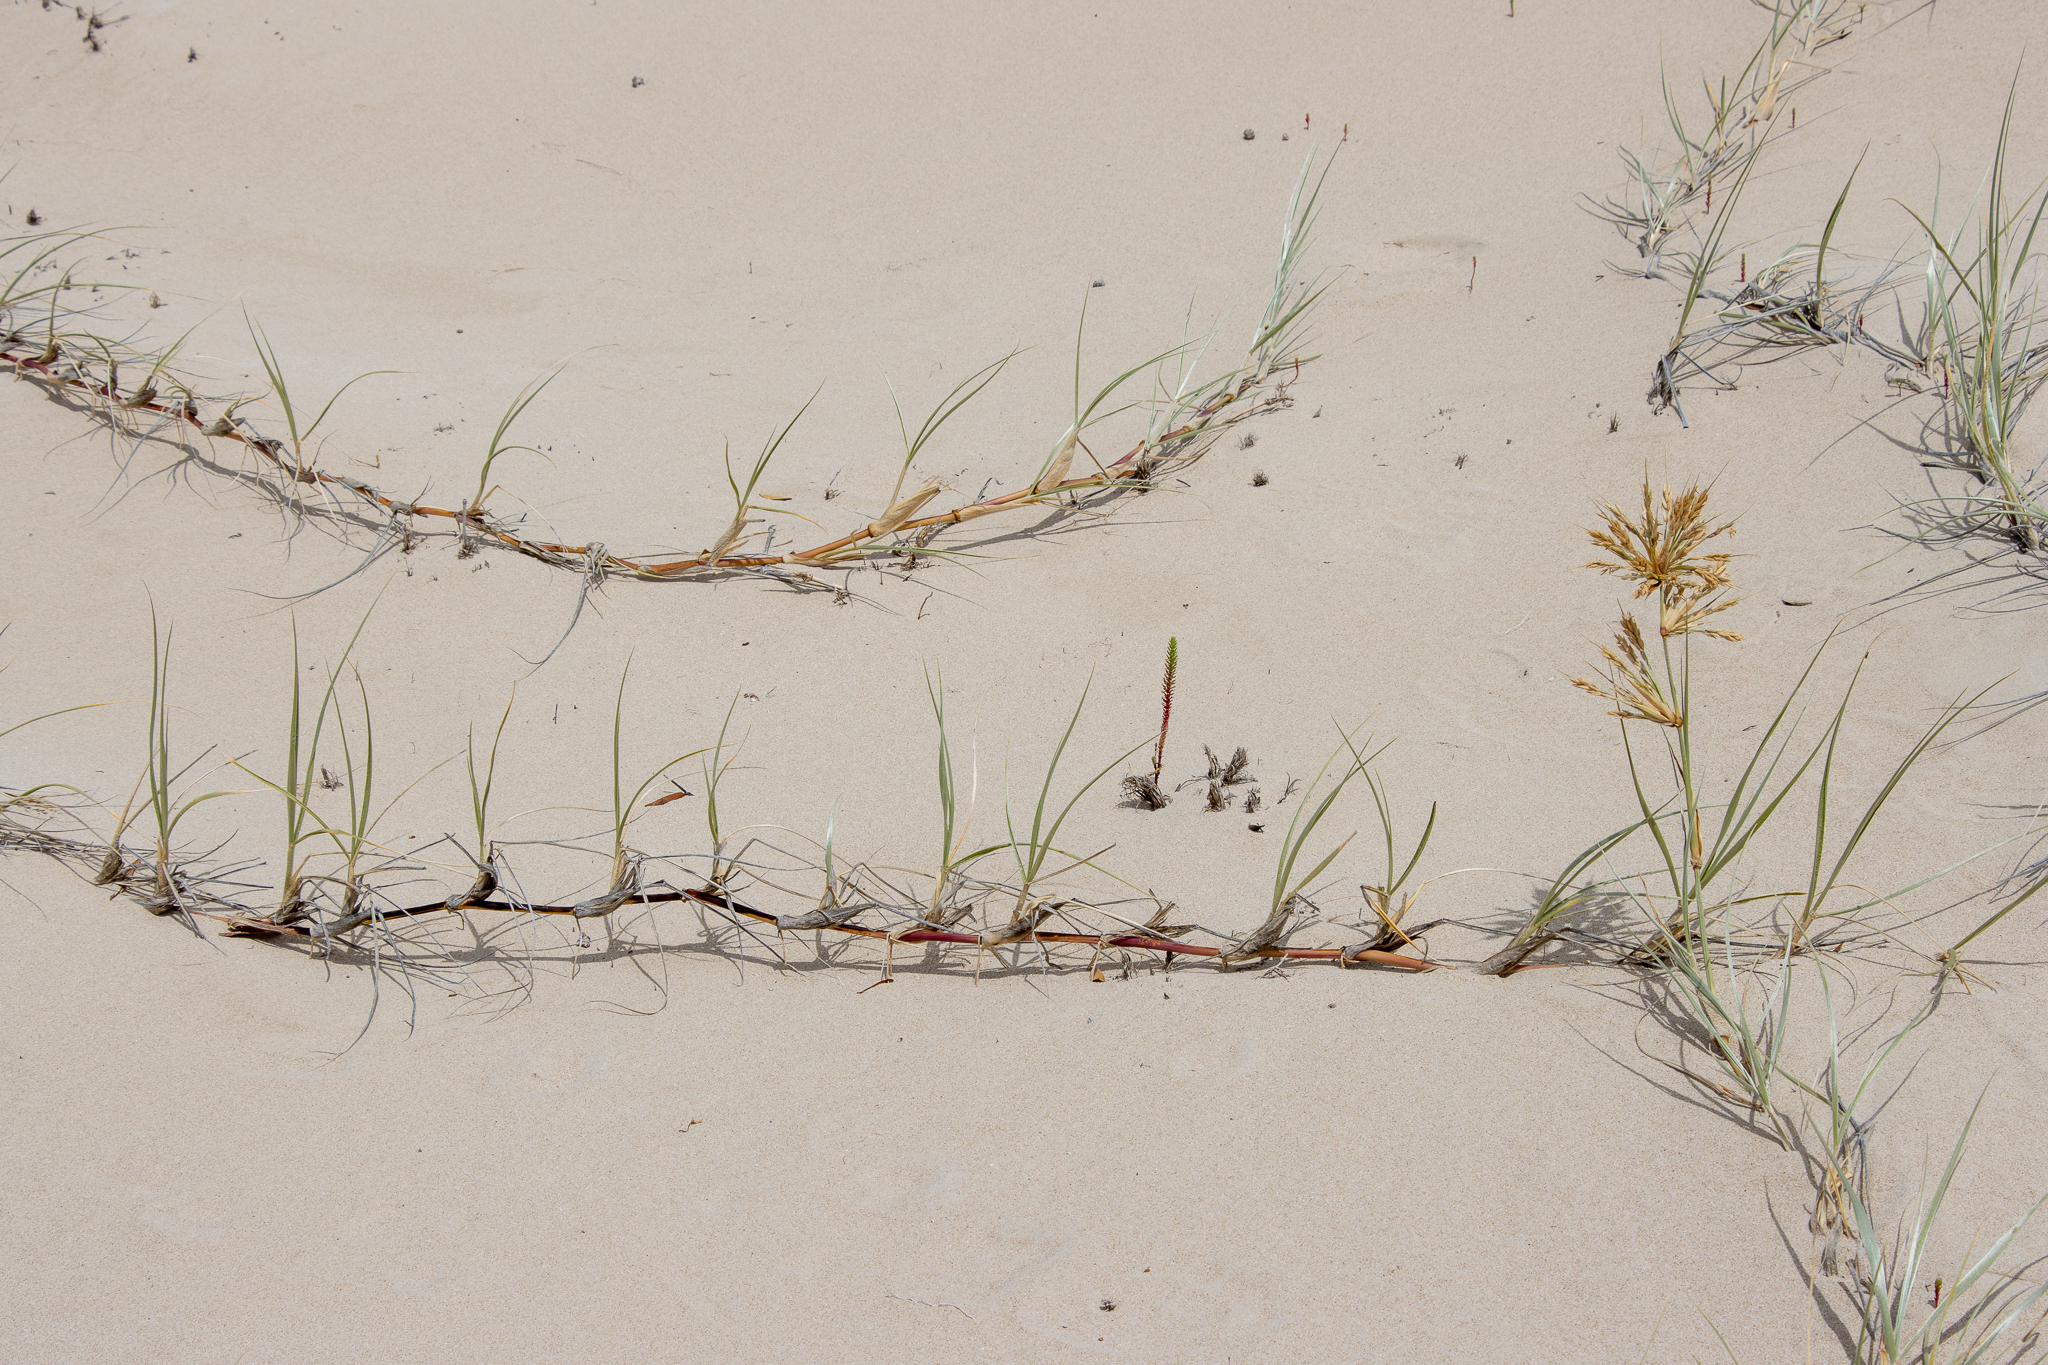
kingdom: Plantae
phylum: Tracheophyta
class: Liliopsida
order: Poales
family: Poaceae
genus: Spinifex
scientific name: Spinifex hirsutus
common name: Hairy spinifex
